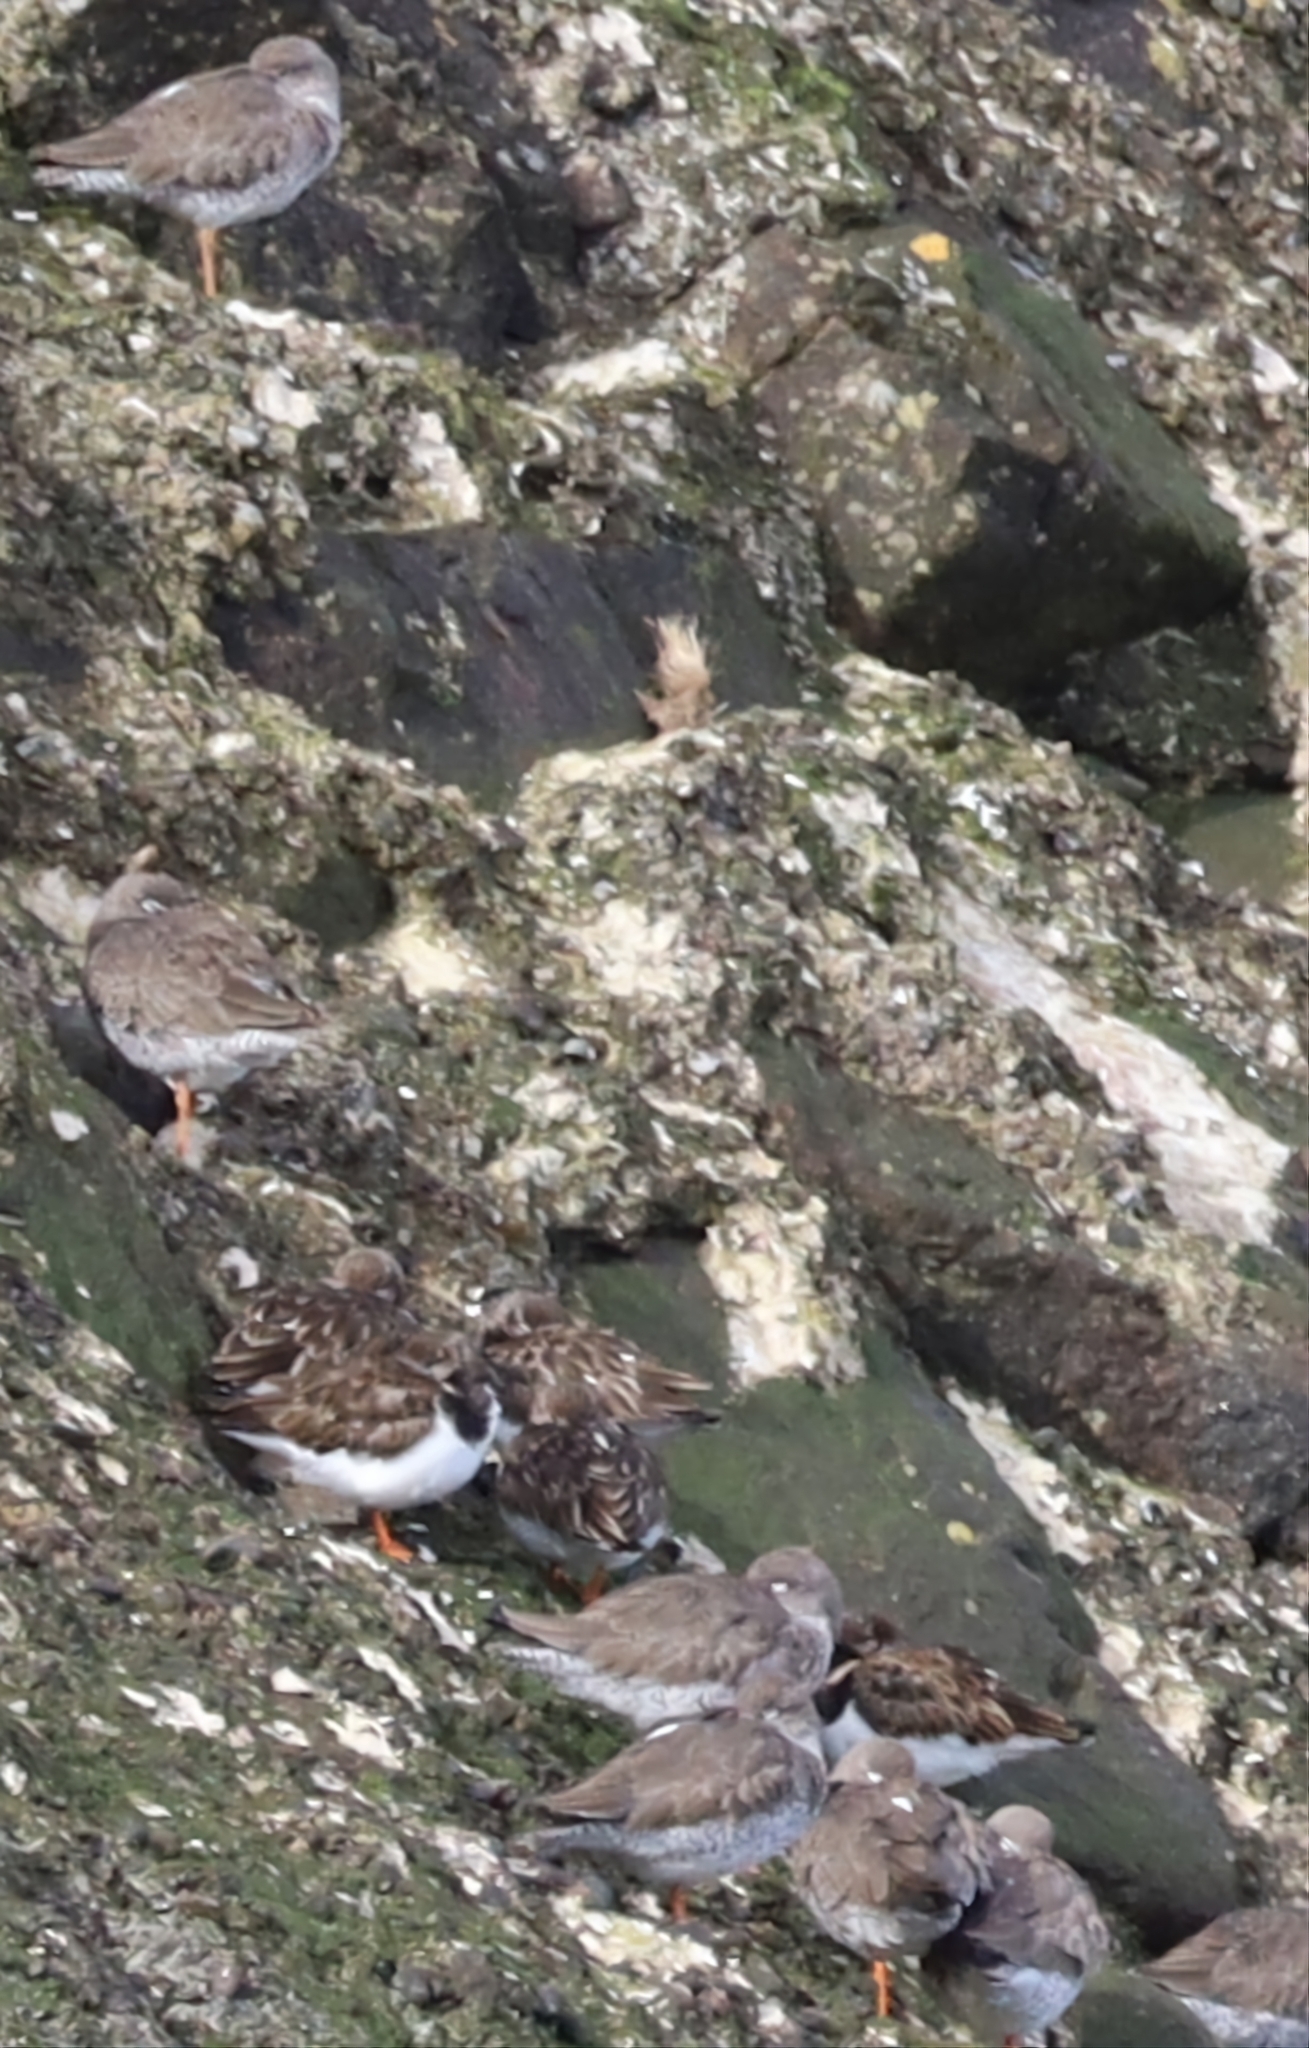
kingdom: Animalia
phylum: Chordata
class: Aves
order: Charadriiformes
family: Scolopacidae
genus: Arenaria
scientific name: Arenaria interpres
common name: Ruddy turnstone
